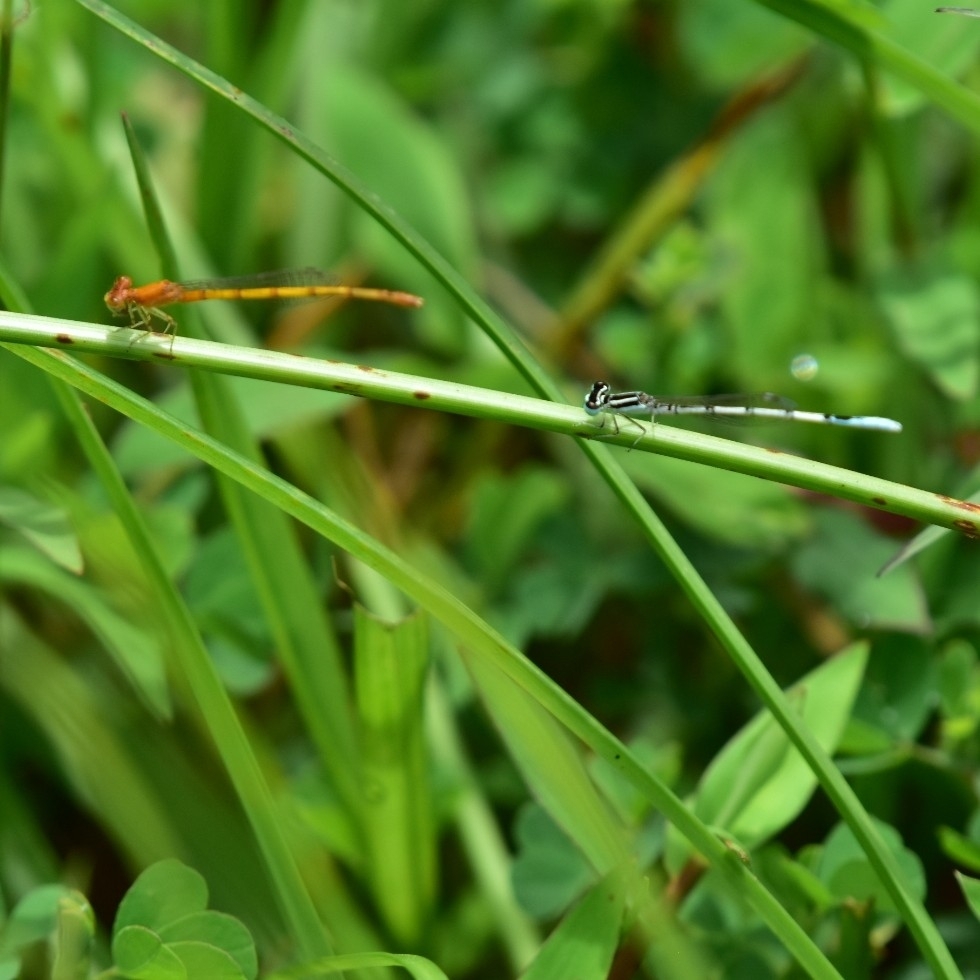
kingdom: Animalia
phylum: Arthropoda
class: Insecta
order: Odonata
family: Coenagrionidae
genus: Agriocnemis
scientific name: Agriocnemis pieris
